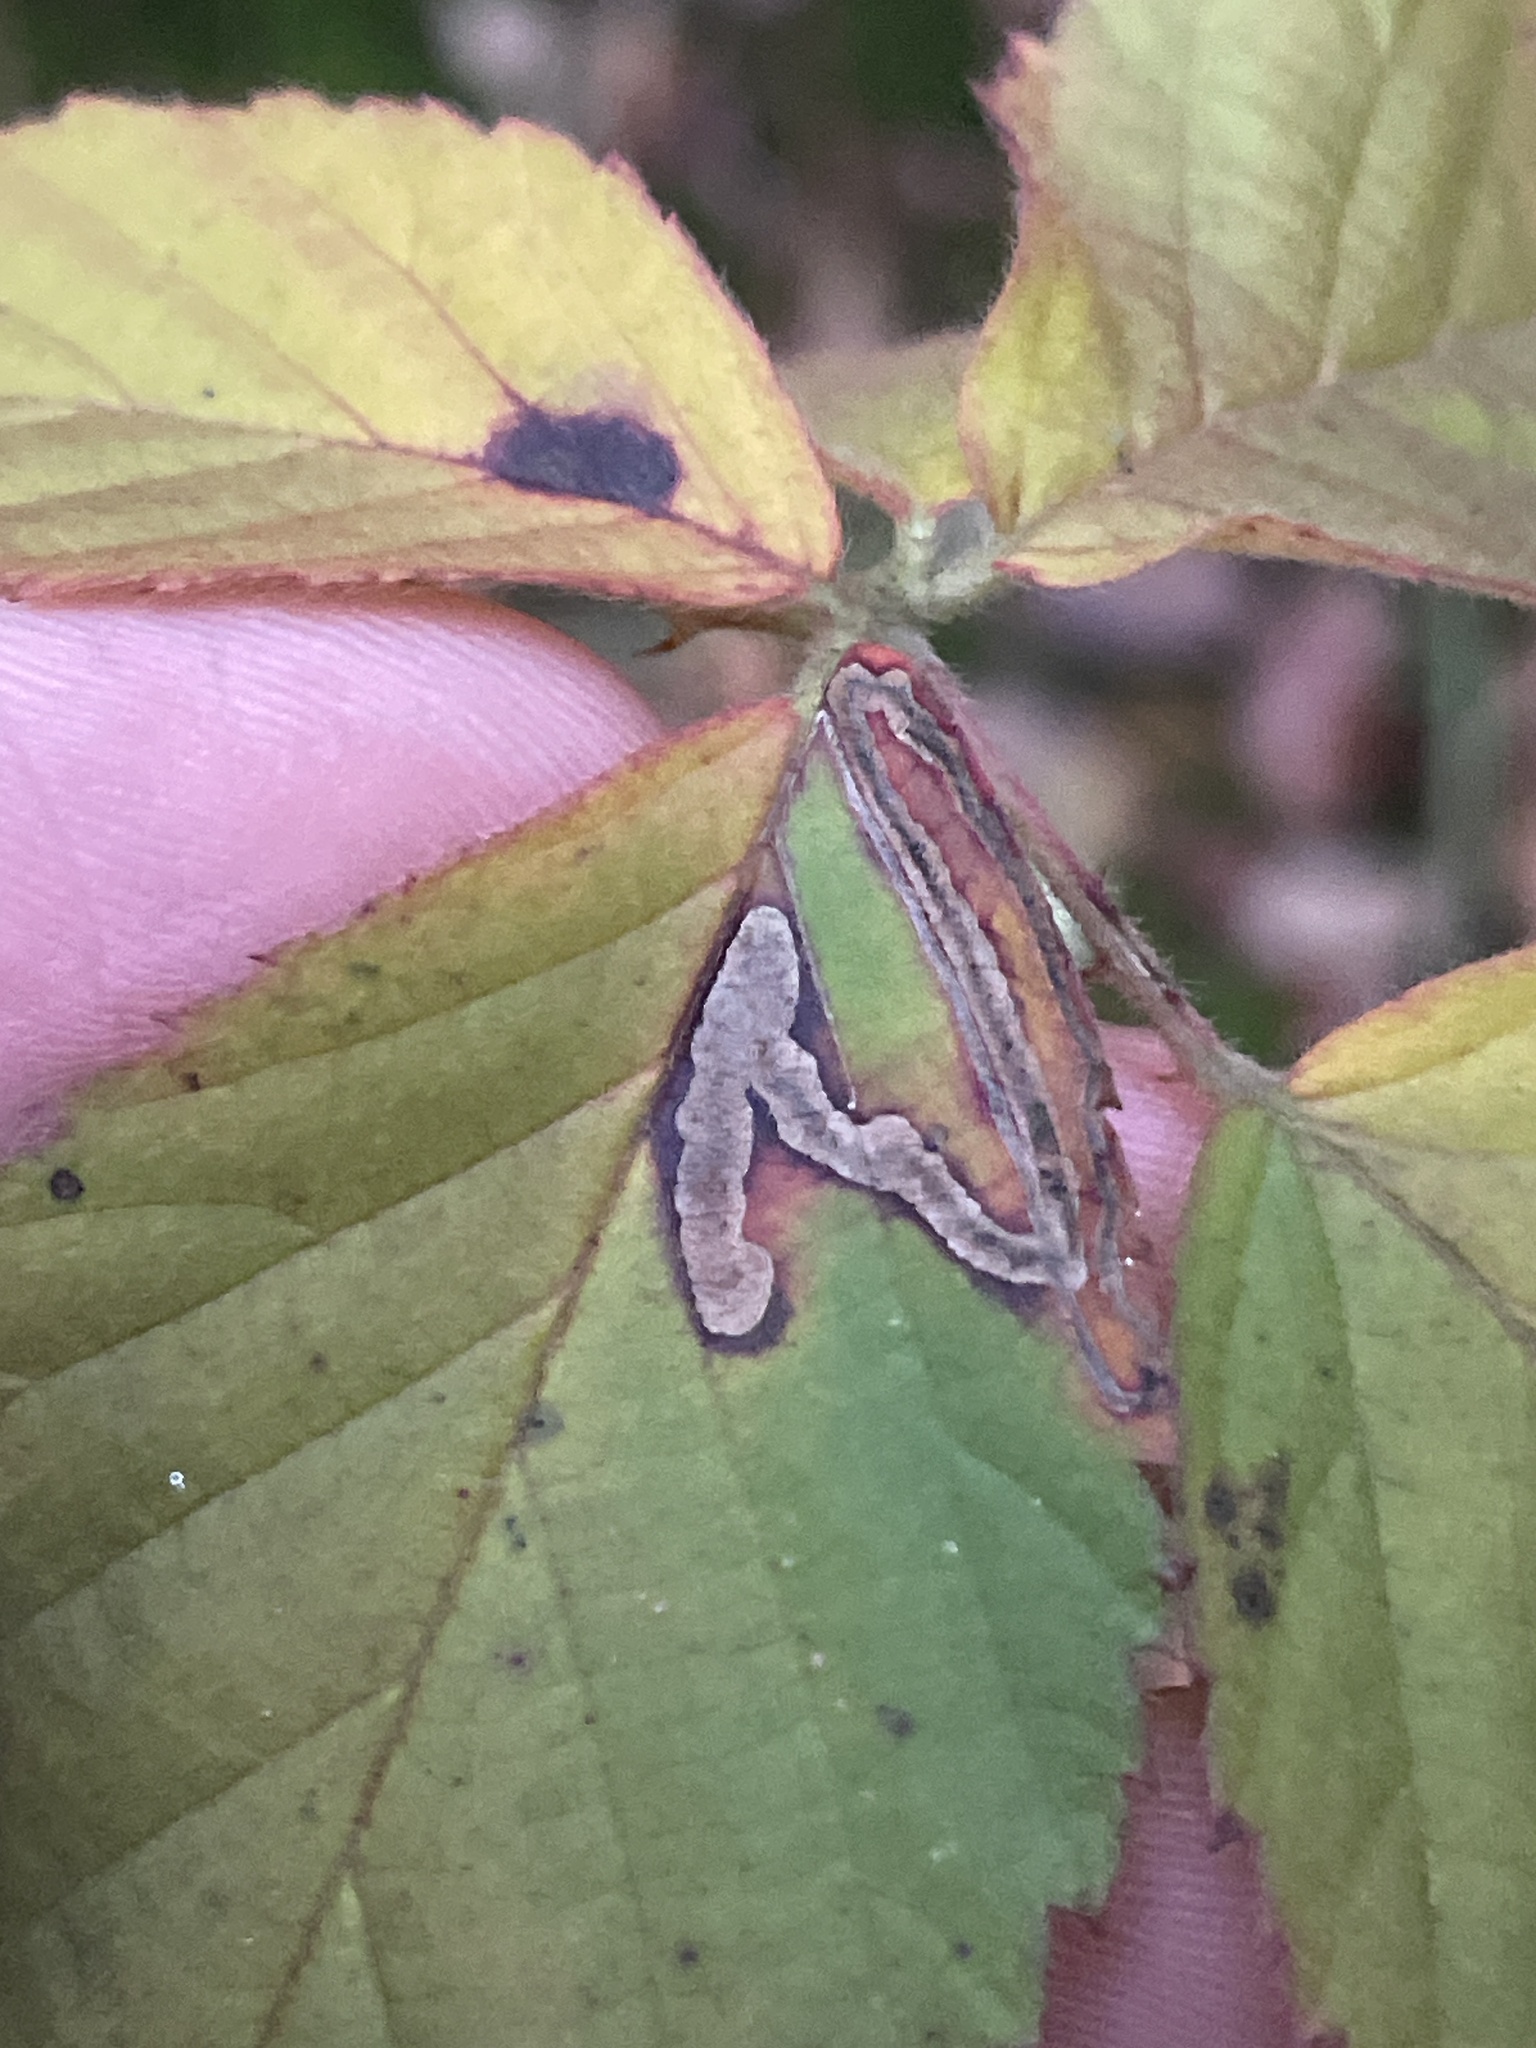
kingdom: Animalia
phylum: Arthropoda
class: Insecta
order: Lepidoptera
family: Nepticulidae
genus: Stigmella
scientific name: Stigmella villosella
